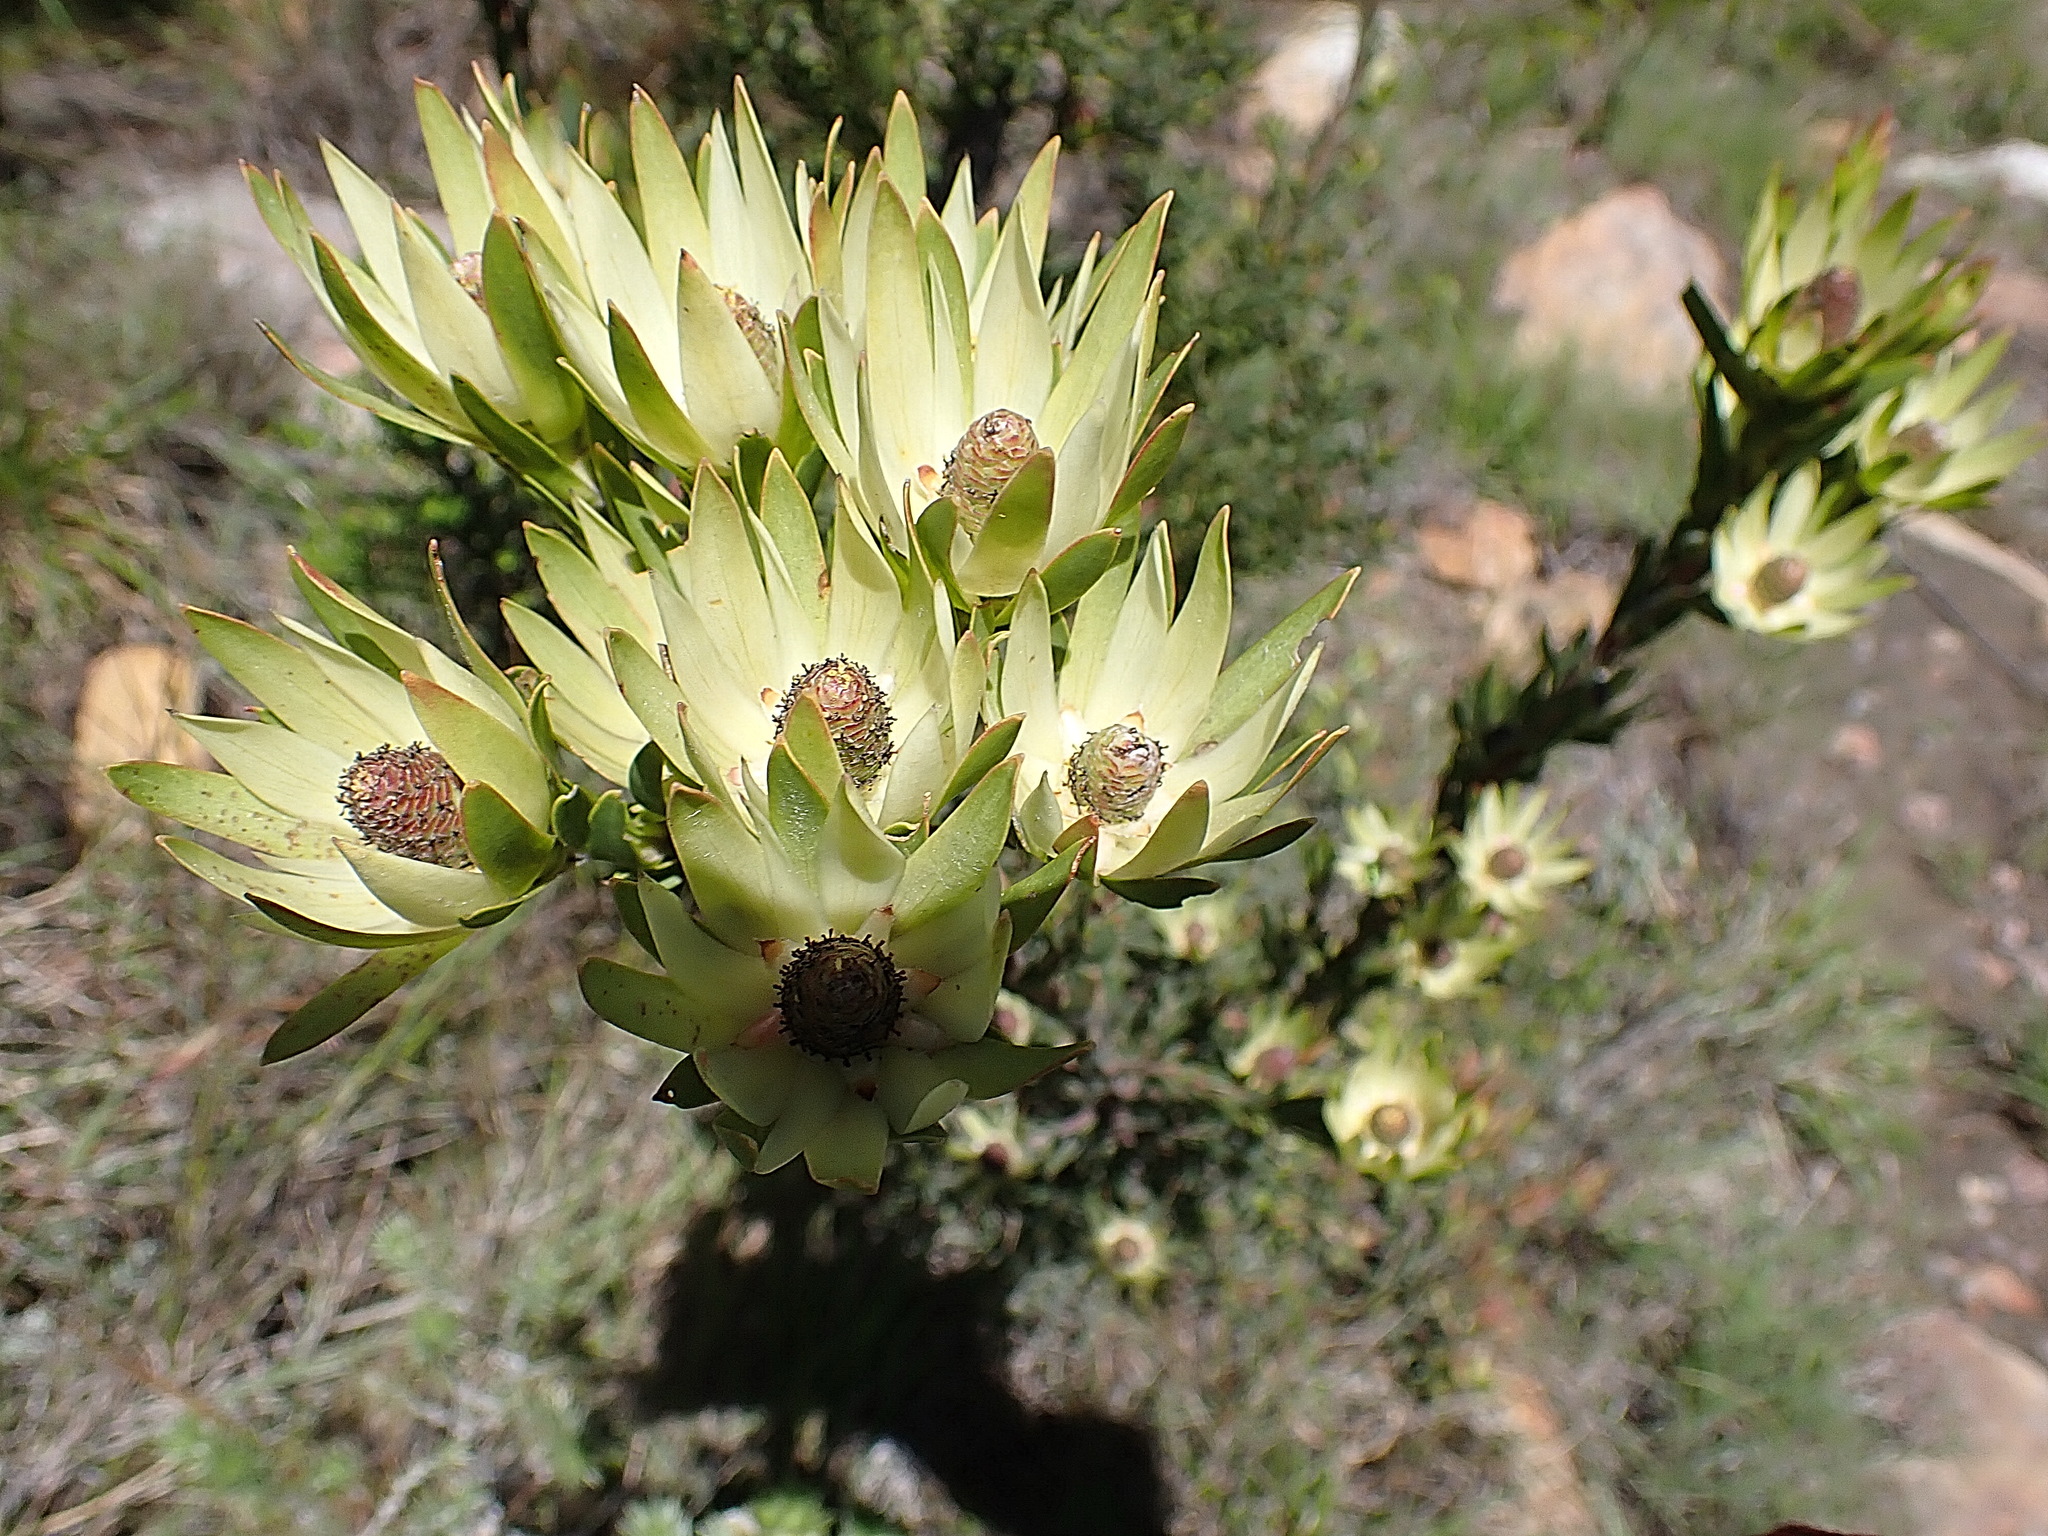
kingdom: Plantae
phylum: Tracheophyta
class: Magnoliopsida
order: Proteales
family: Proteaceae
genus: Leucadendron
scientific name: Leucadendron loeriense
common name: Loerie conebush
